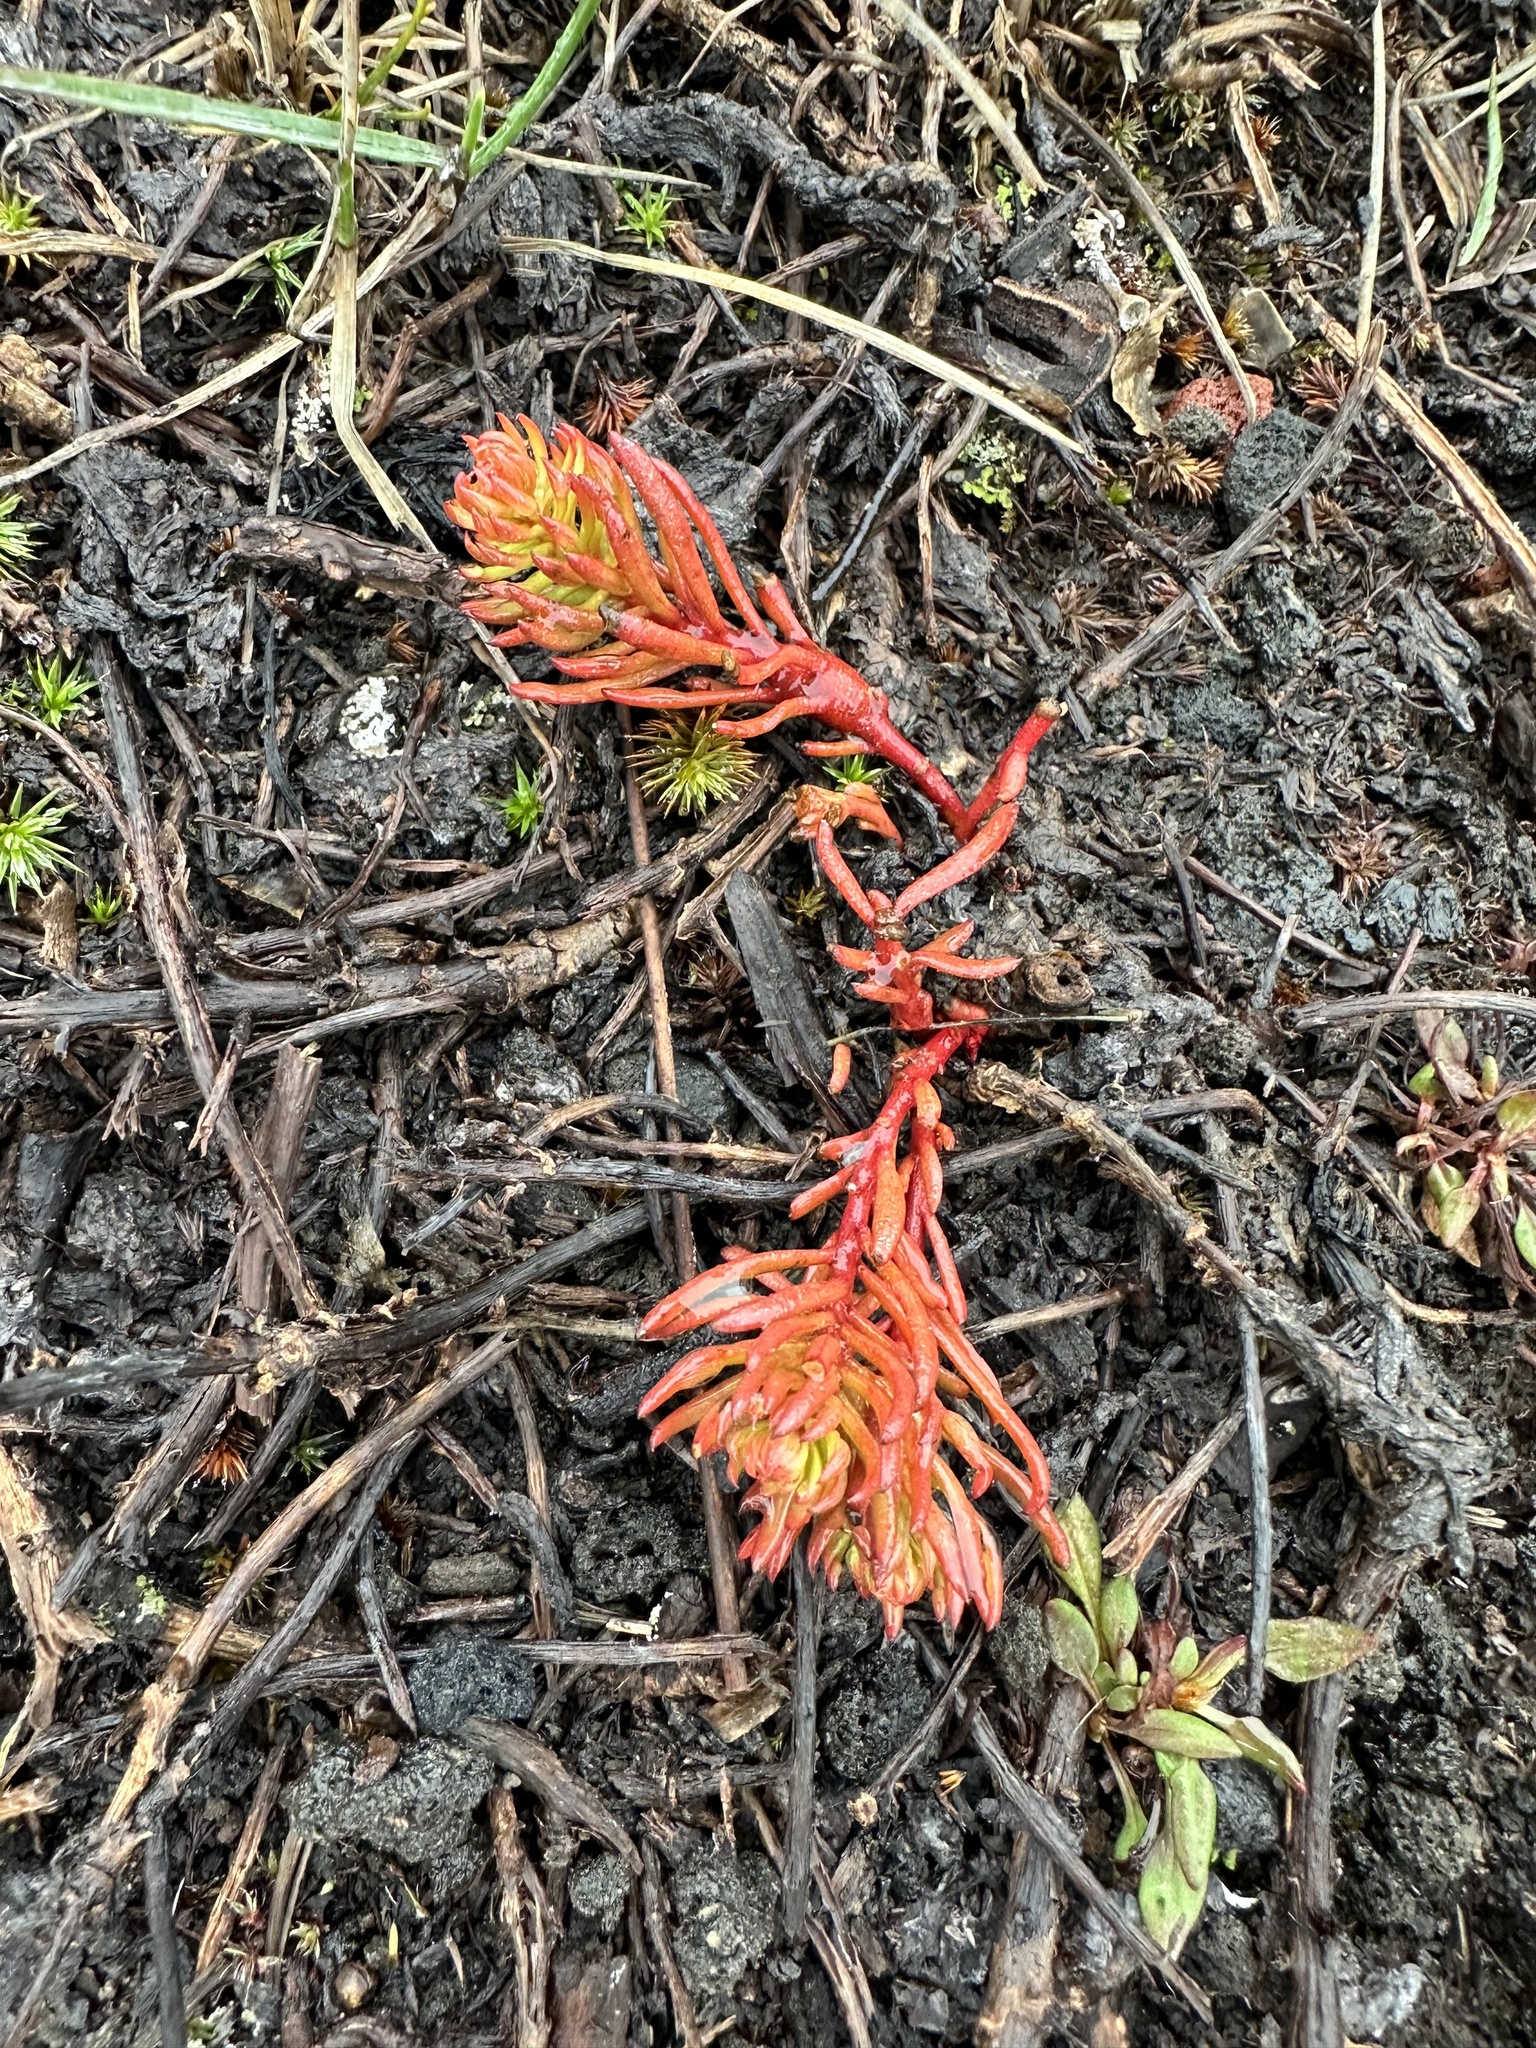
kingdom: Plantae
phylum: Tracheophyta
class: Magnoliopsida
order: Santalales
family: Schoepfiaceae
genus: Quinchamalium
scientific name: Quinchamalium chilense
